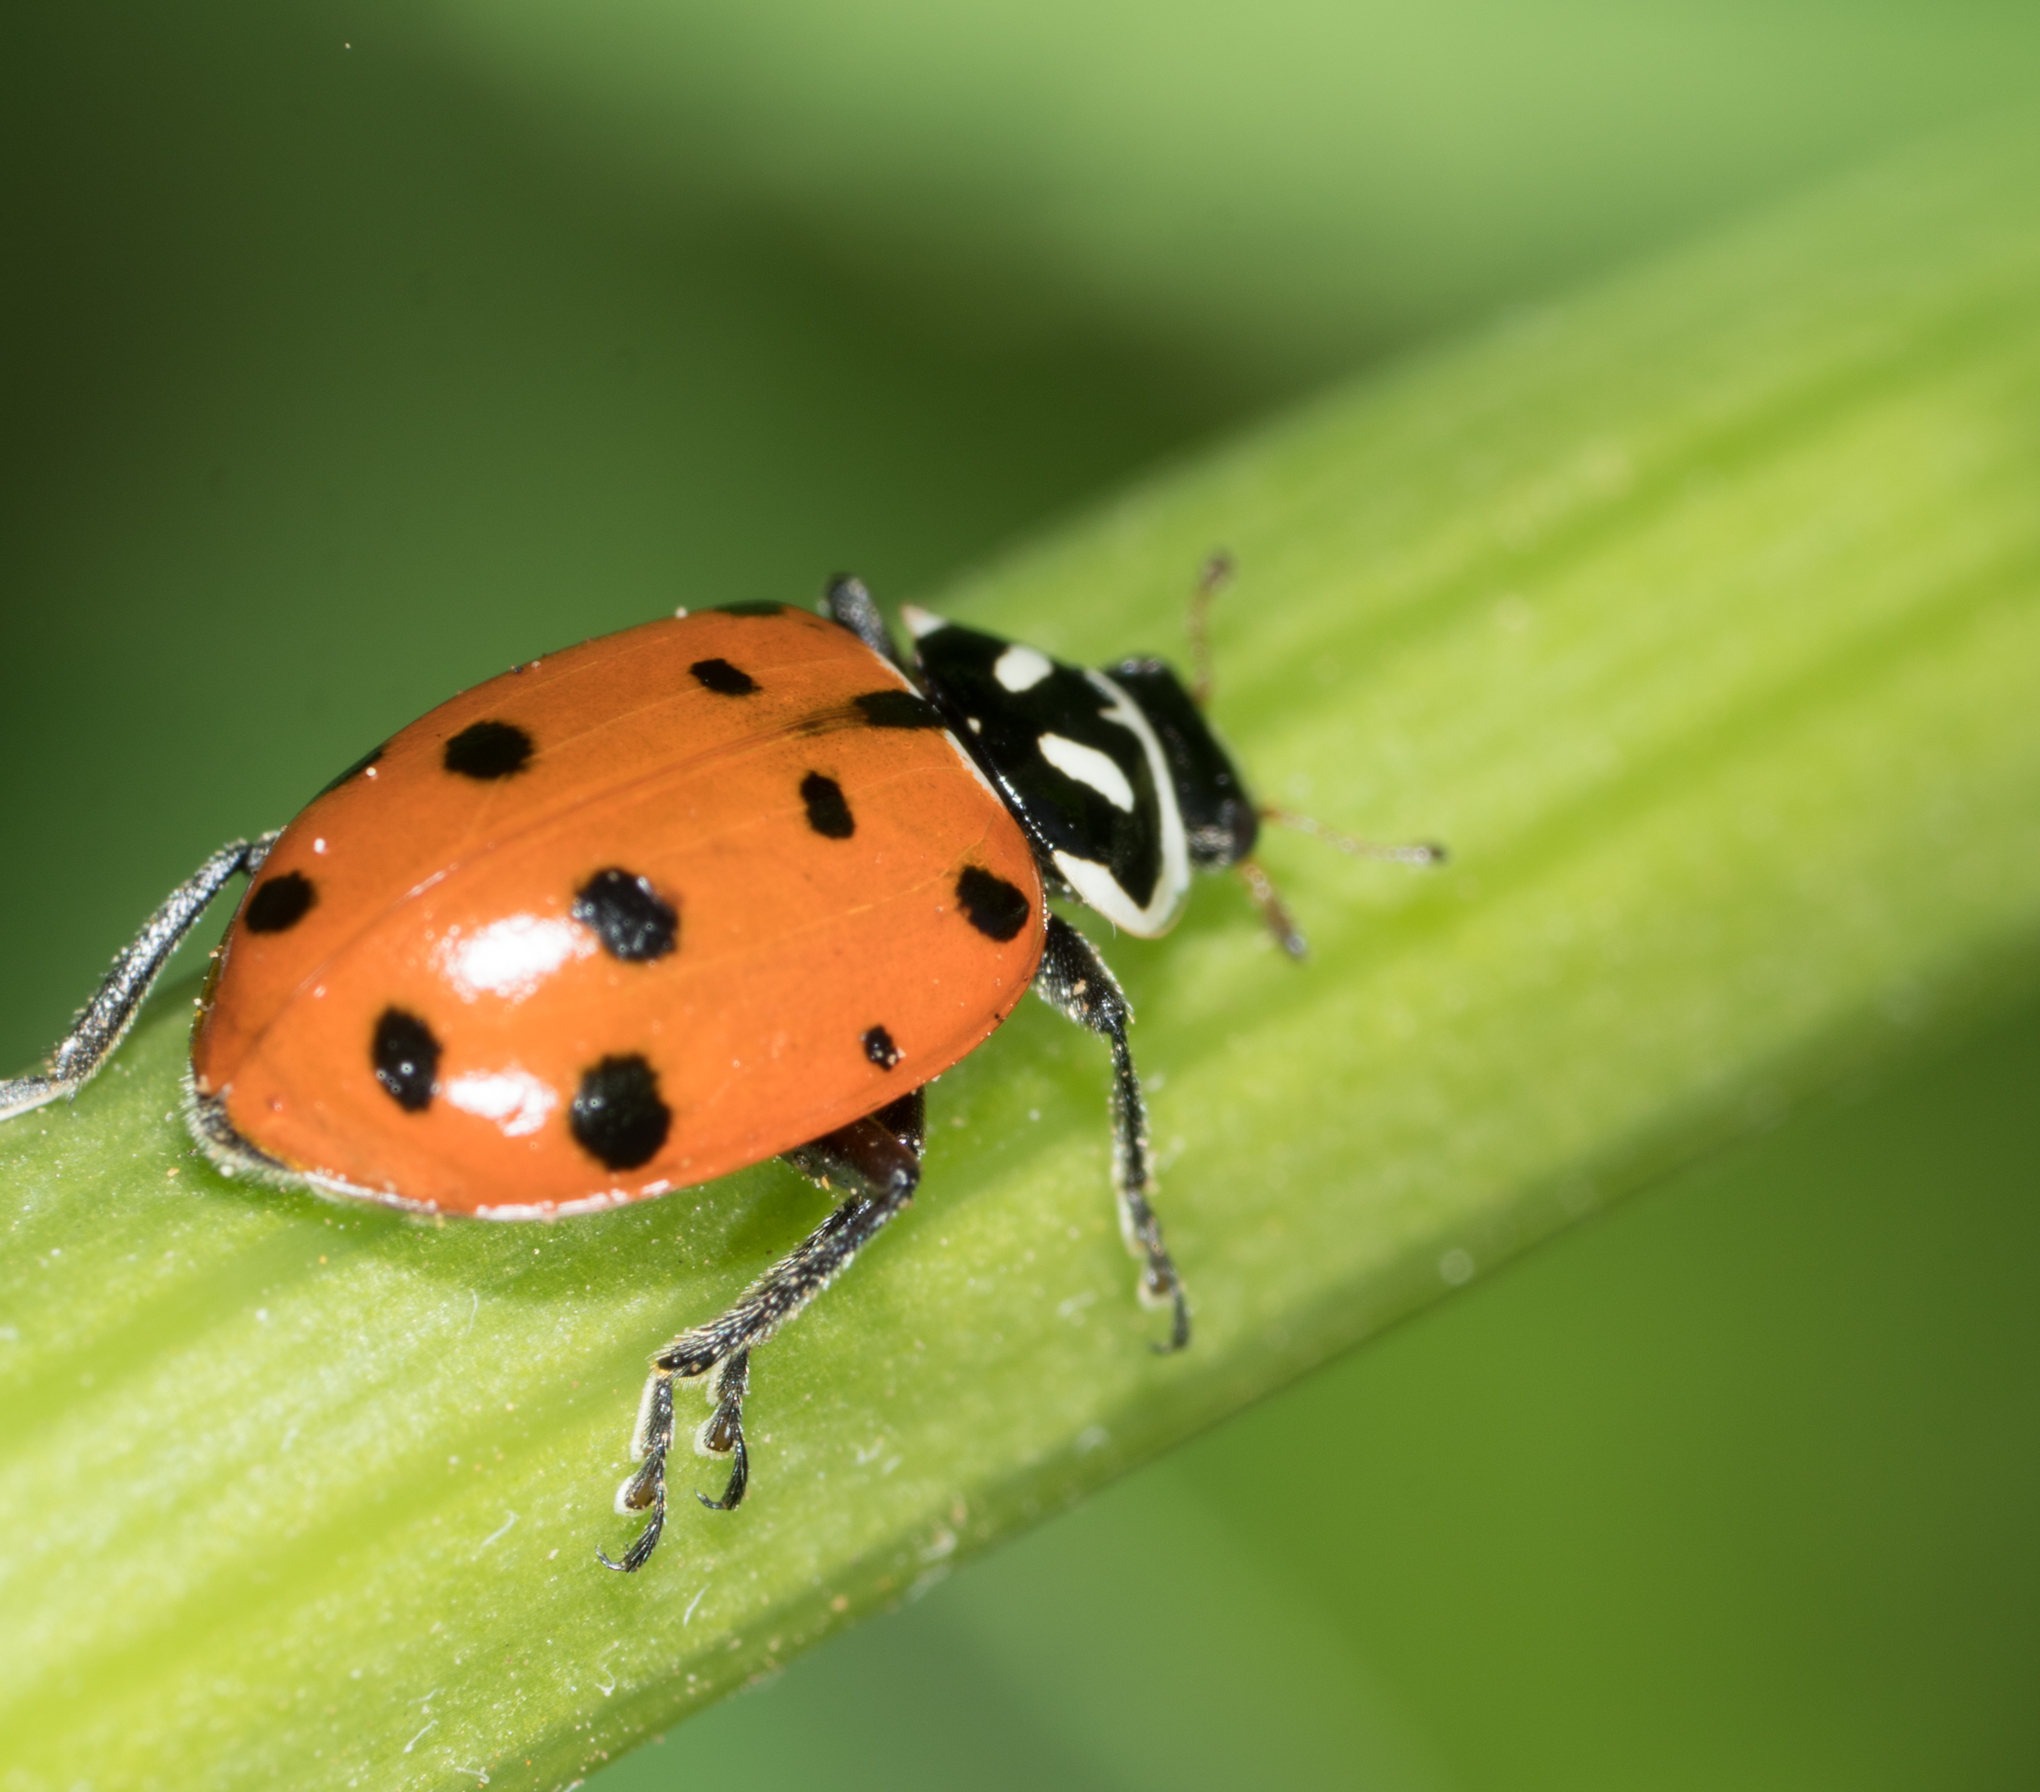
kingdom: Animalia
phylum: Arthropoda
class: Insecta
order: Coleoptera
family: Coccinellidae
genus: Hippodamia
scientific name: Hippodamia convergens
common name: Convergent lady beetle
